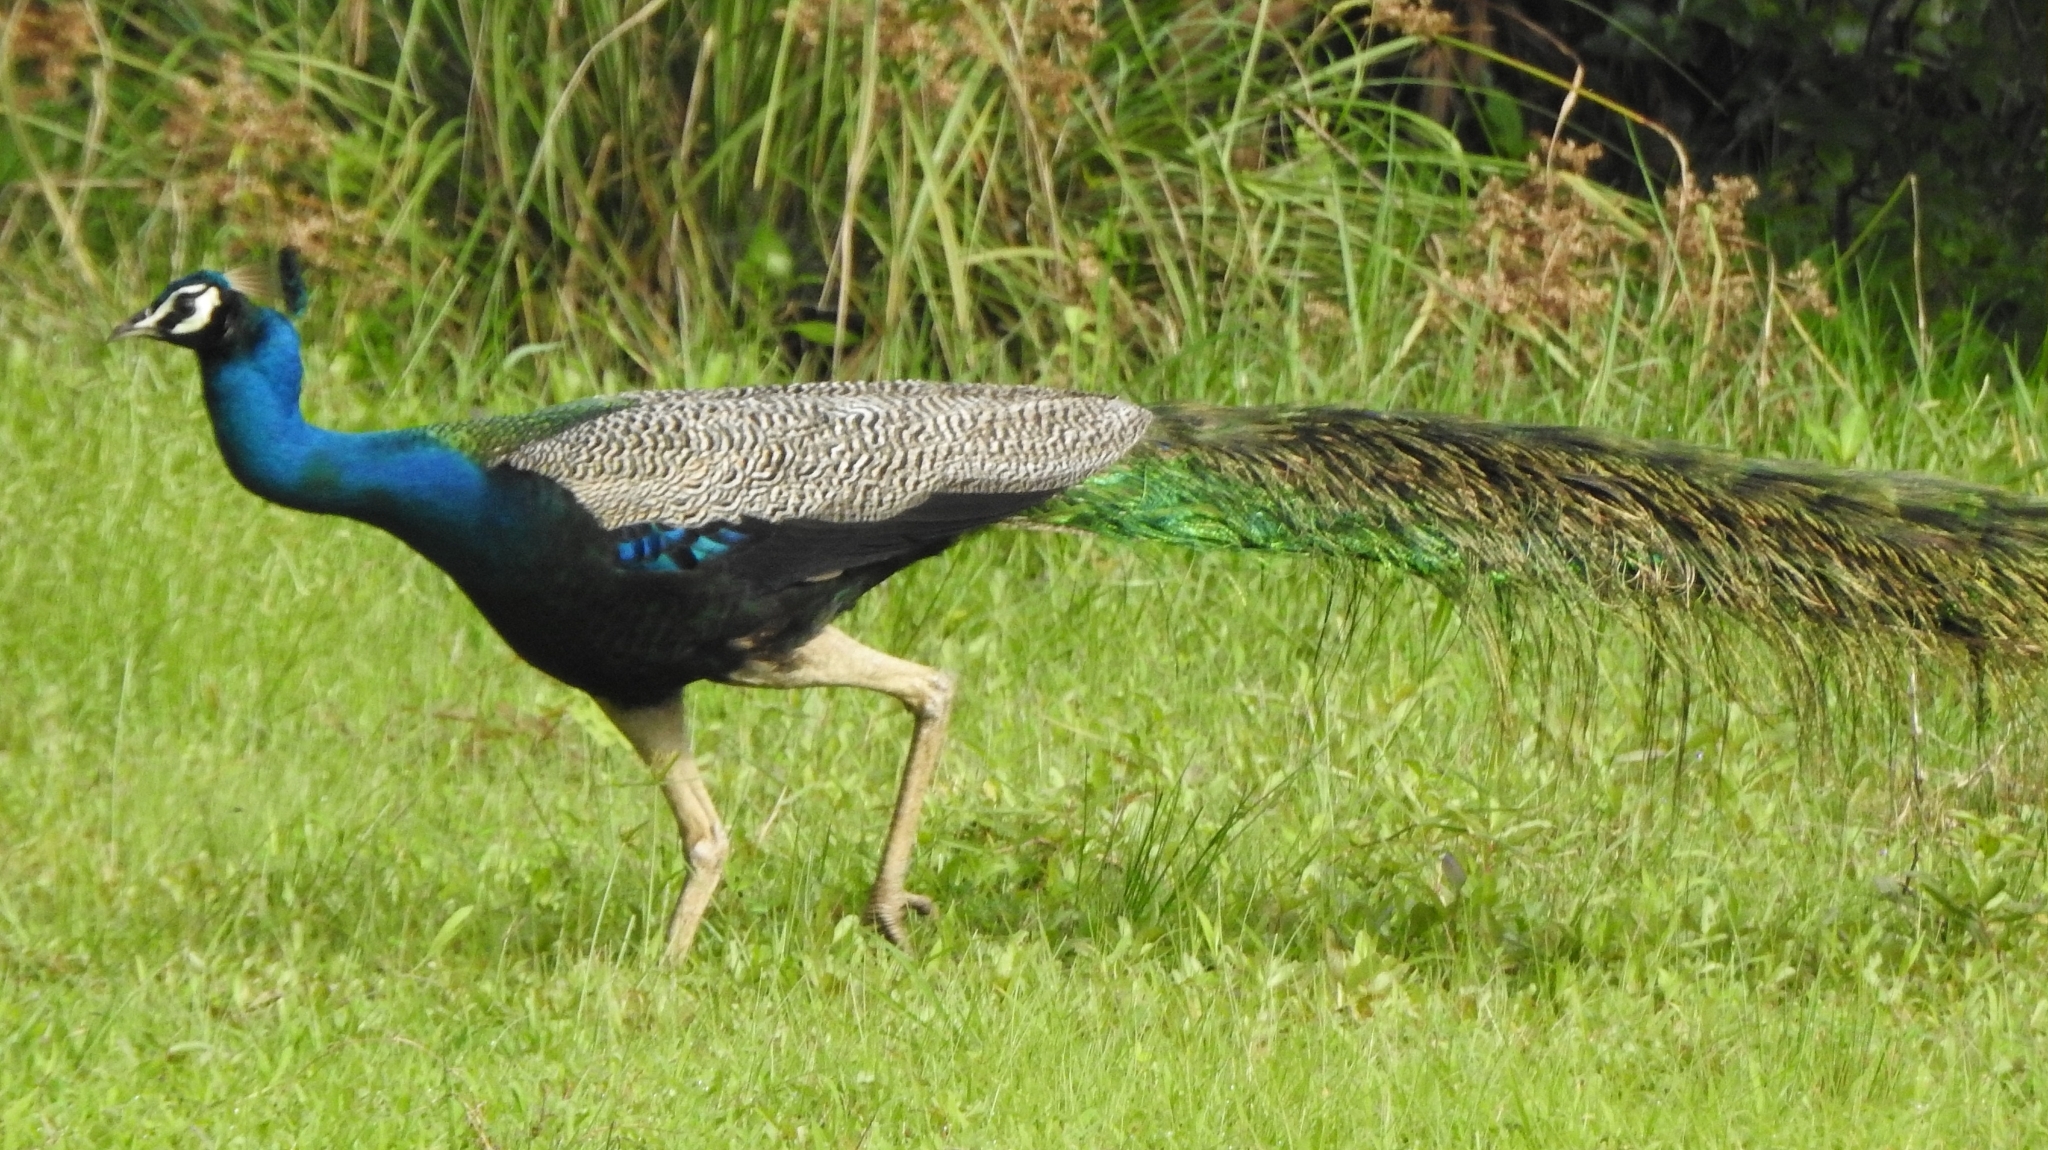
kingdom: Animalia
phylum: Chordata
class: Aves
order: Galliformes
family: Phasianidae
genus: Pavo
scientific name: Pavo cristatus
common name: Indian peafowl
